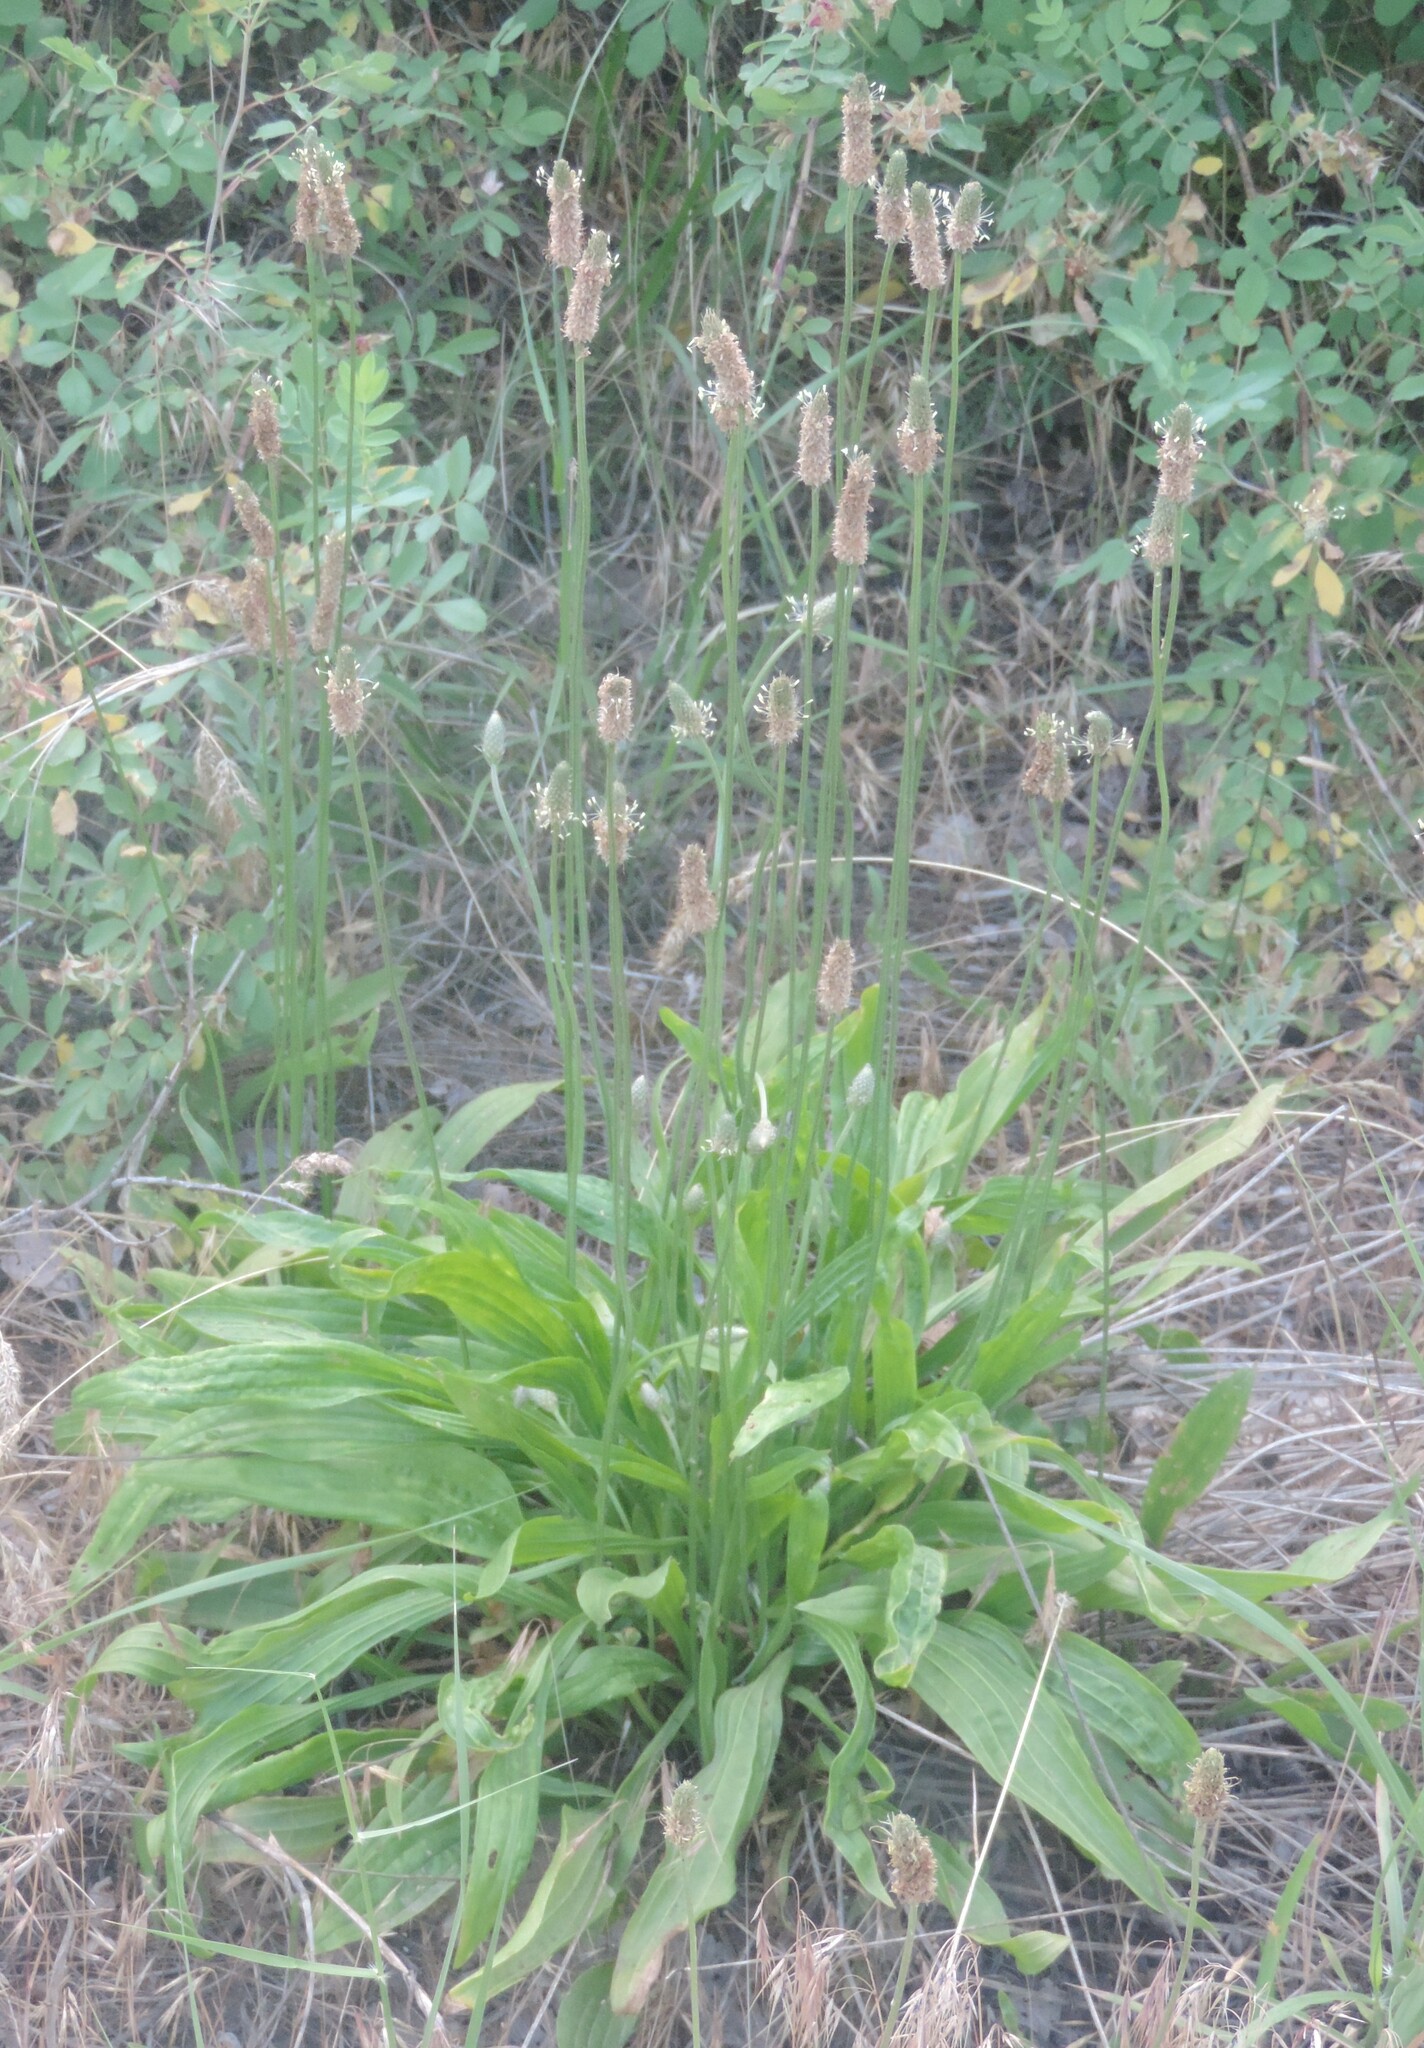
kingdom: Plantae
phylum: Tracheophyta
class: Magnoliopsida
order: Lamiales
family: Plantaginaceae
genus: Plantago
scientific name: Plantago lanceolata
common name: Ribwort plantain
